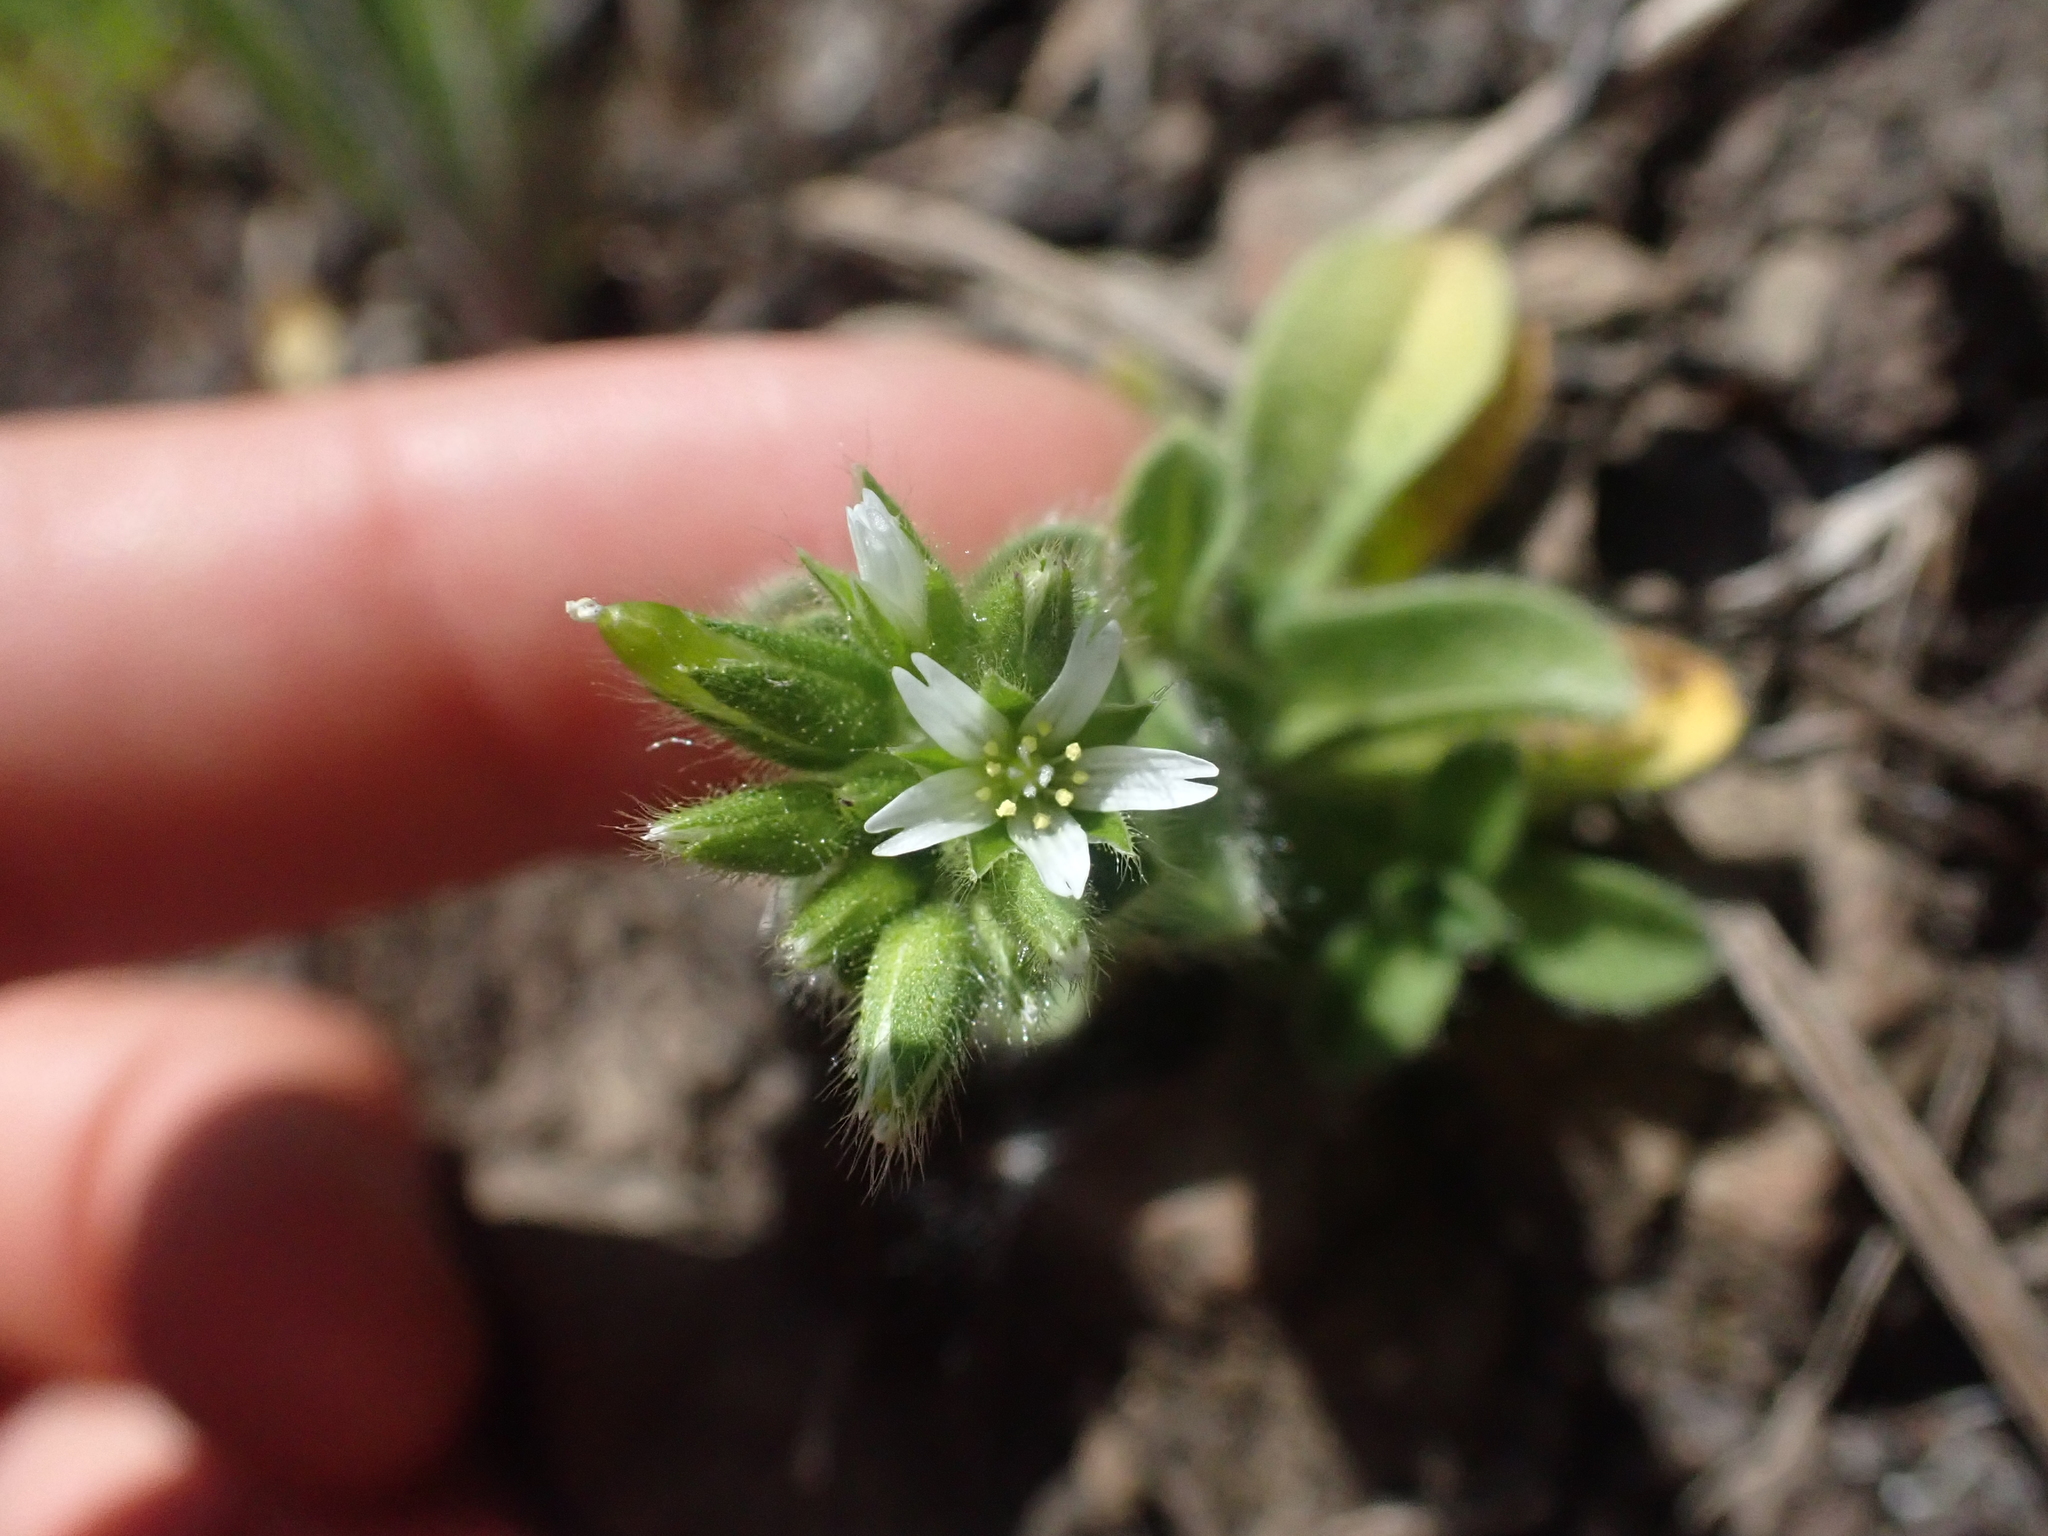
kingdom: Plantae
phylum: Tracheophyta
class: Magnoliopsida
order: Caryophyllales
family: Caryophyllaceae
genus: Cerastium
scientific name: Cerastium glomeratum
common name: Sticky chickweed
